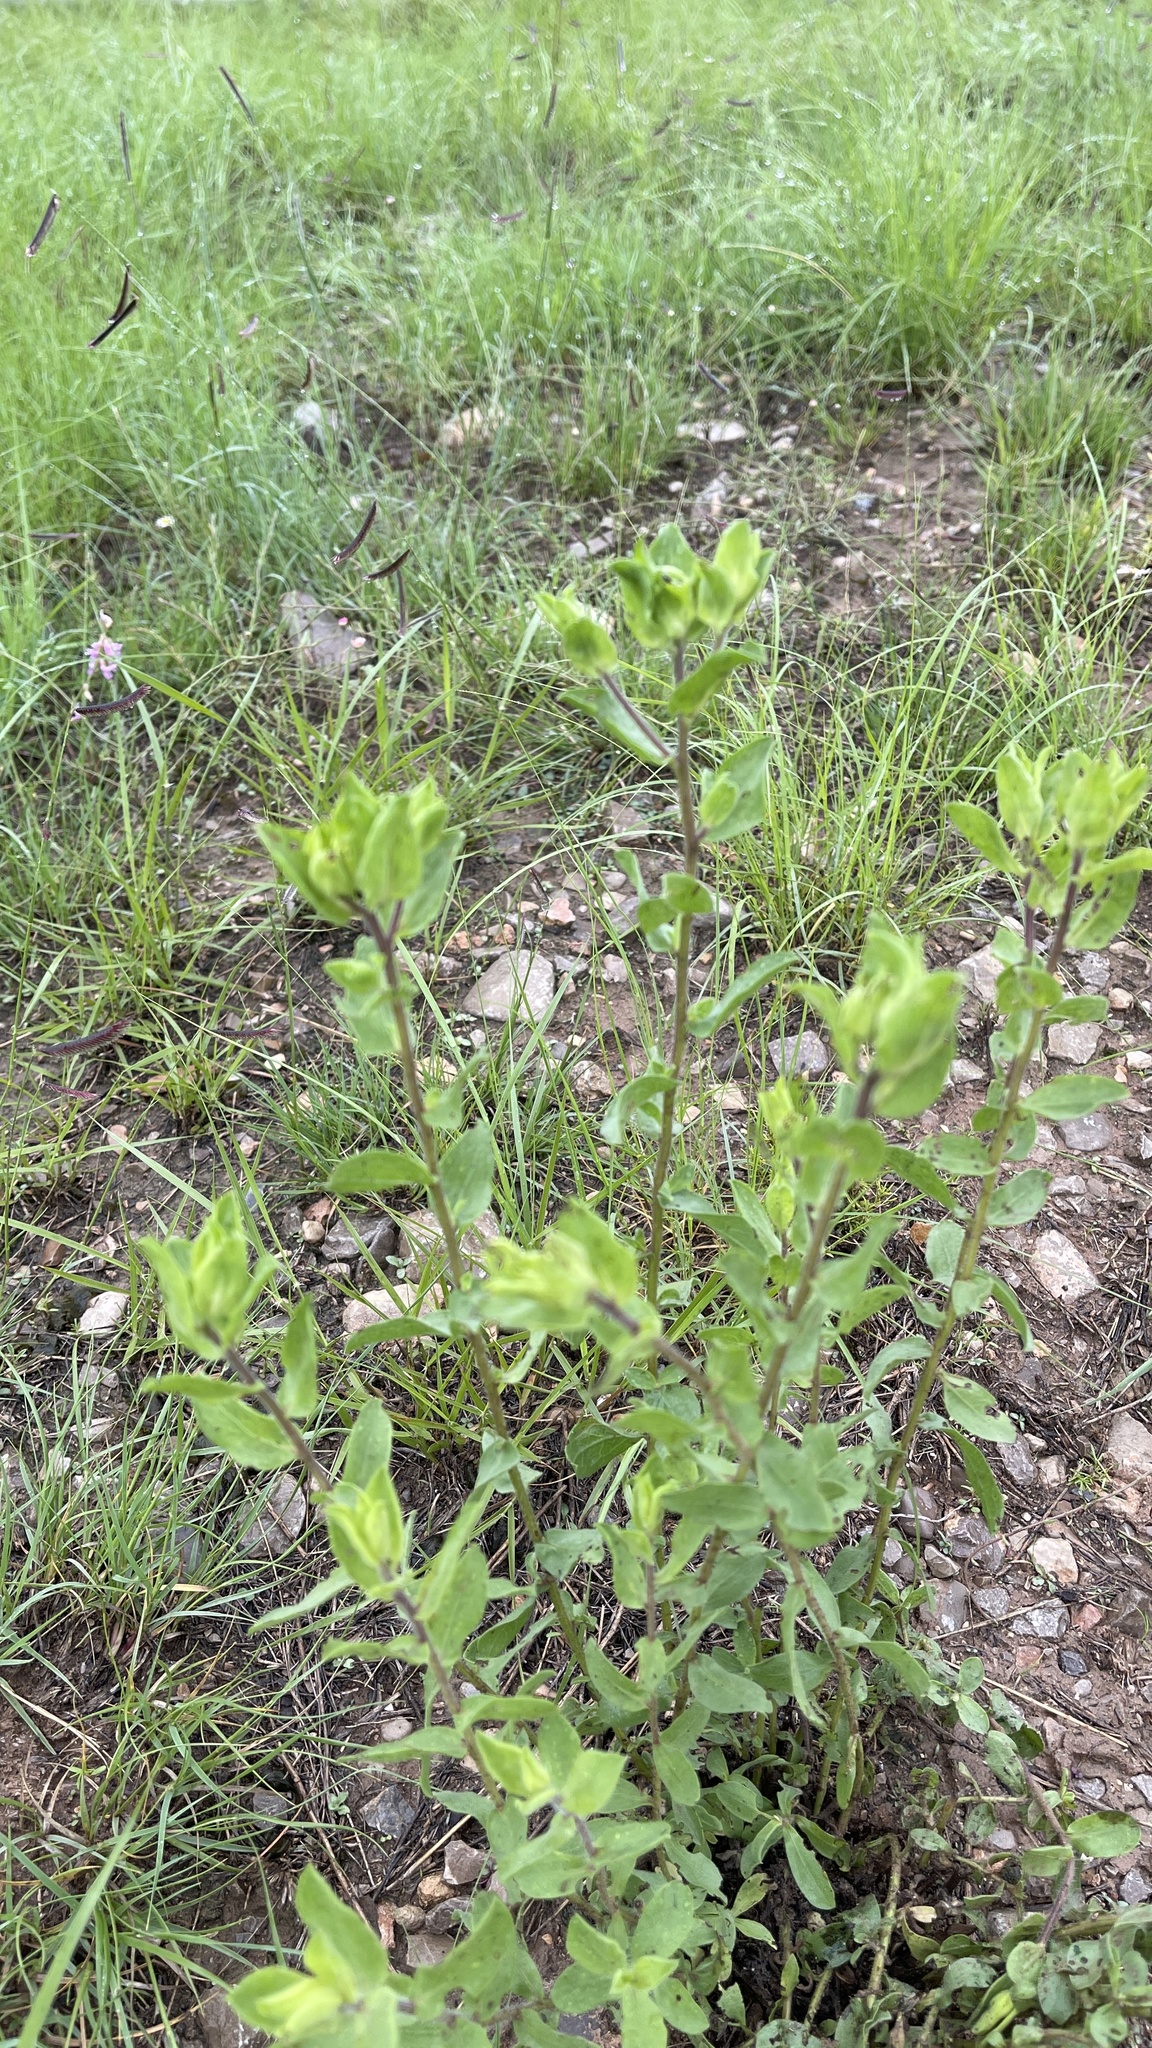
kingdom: Plantae
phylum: Tracheophyta
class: Magnoliopsida
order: Asterales
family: Asteraceae
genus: Heterotheca
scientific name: Heterotheca cryptocephala
